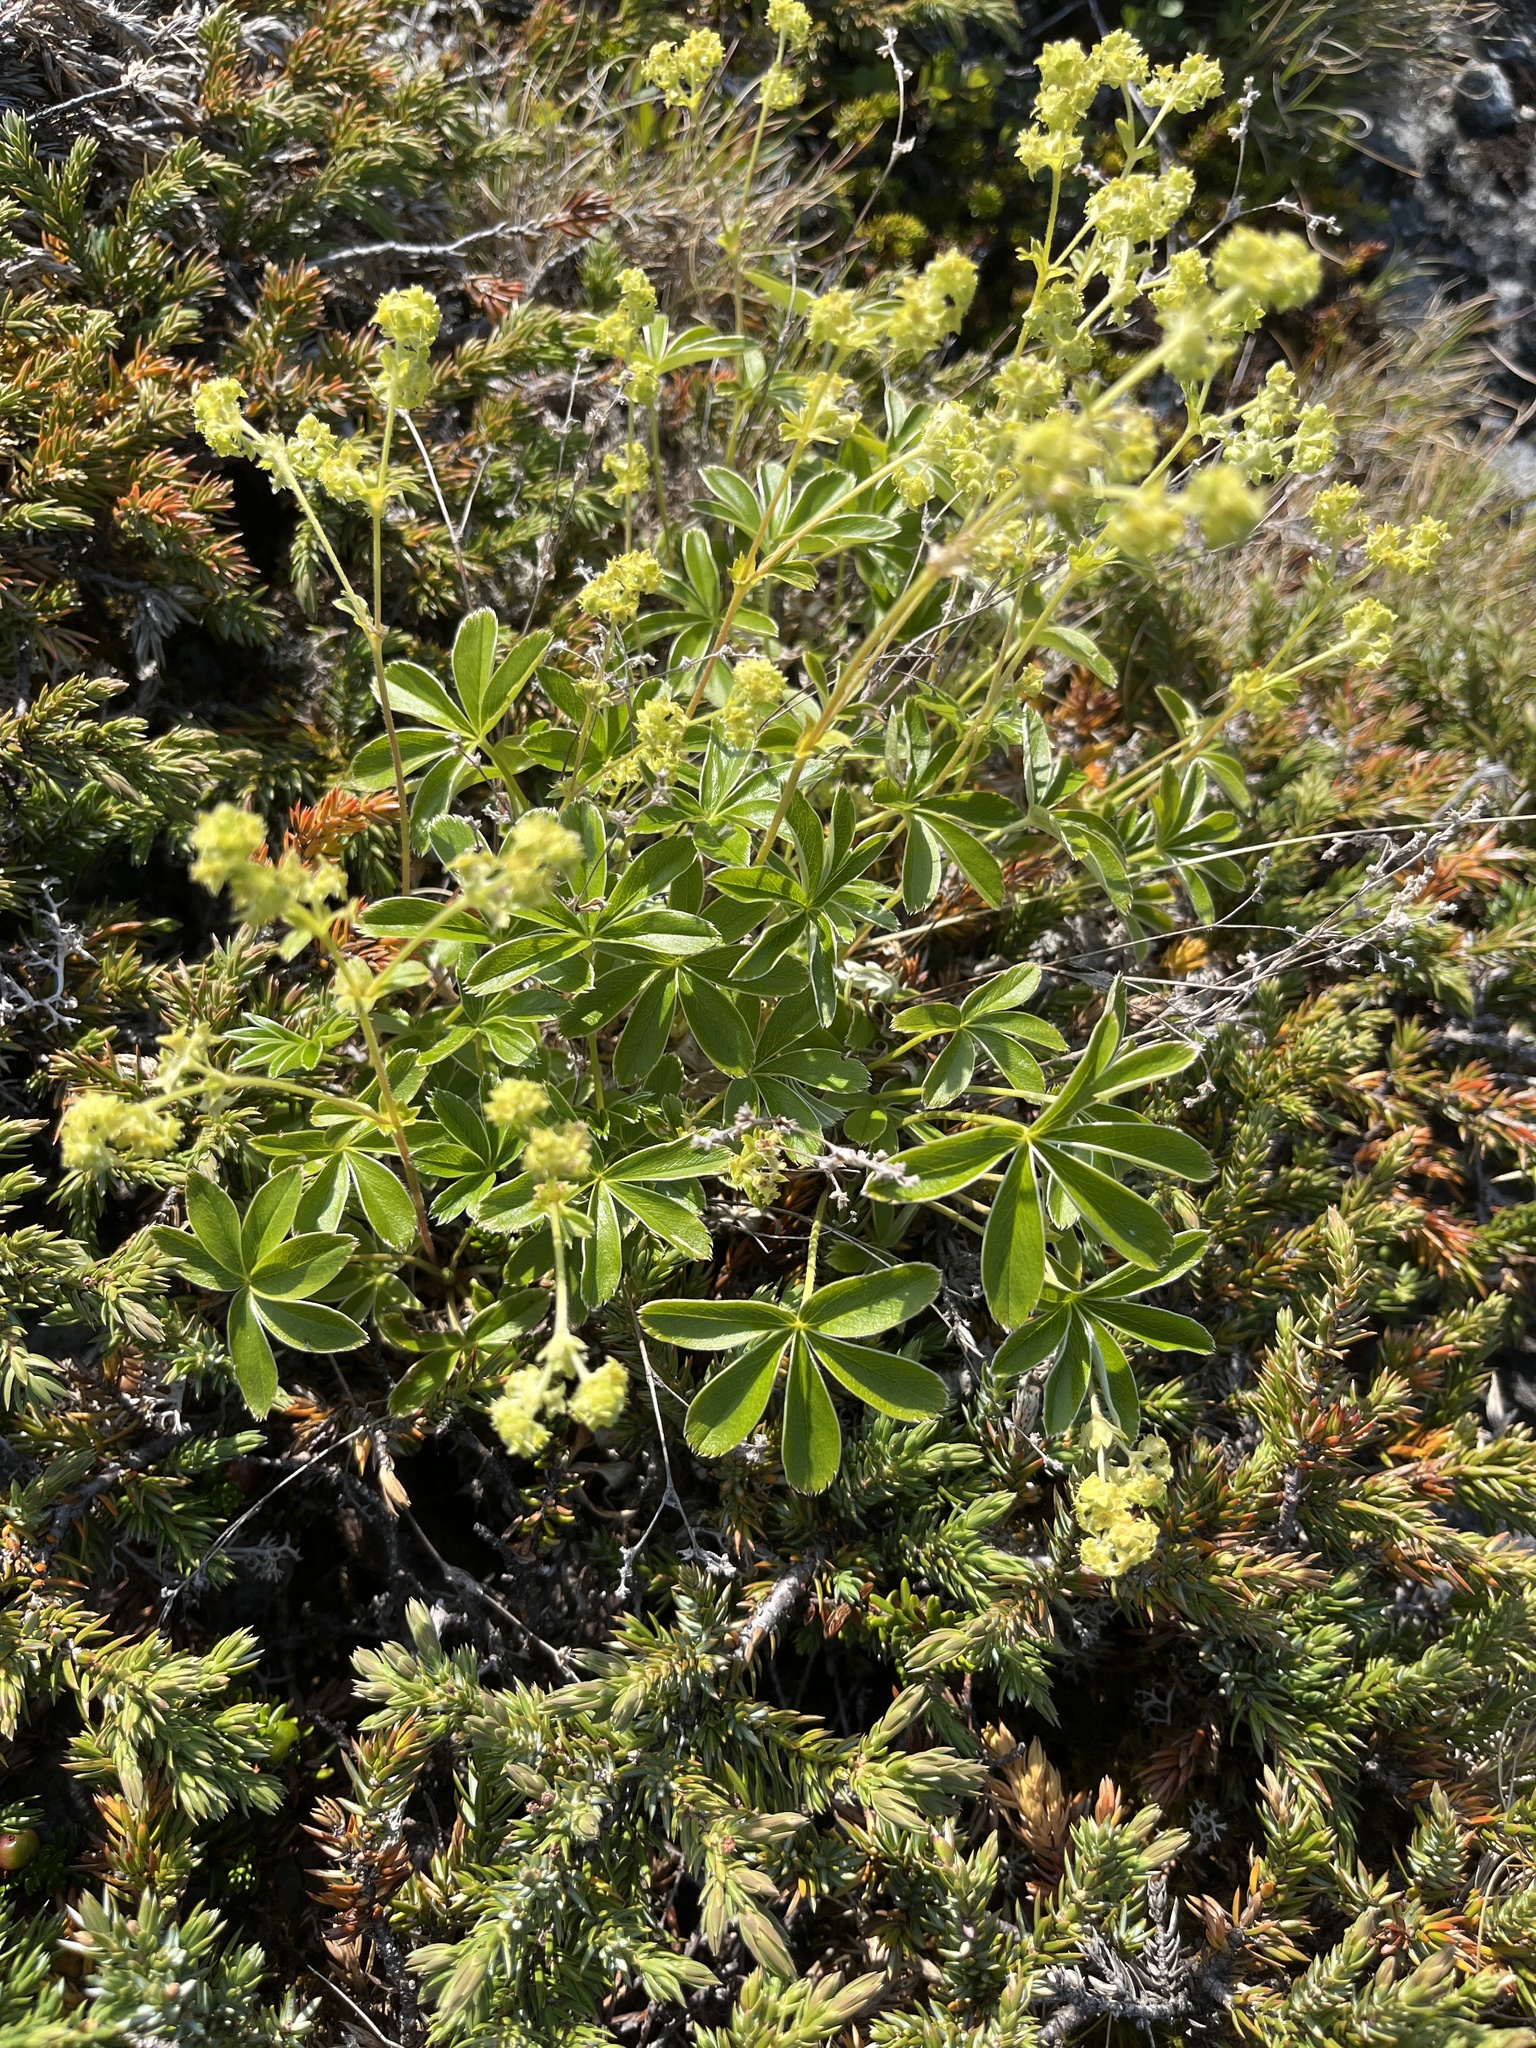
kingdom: Plantae
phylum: Tracheophyta
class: Magnoliopsida
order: Rosales
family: Rosaceae
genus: Alchemilla
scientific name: Alchemilla alpina
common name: Alpine lady's-mantle
